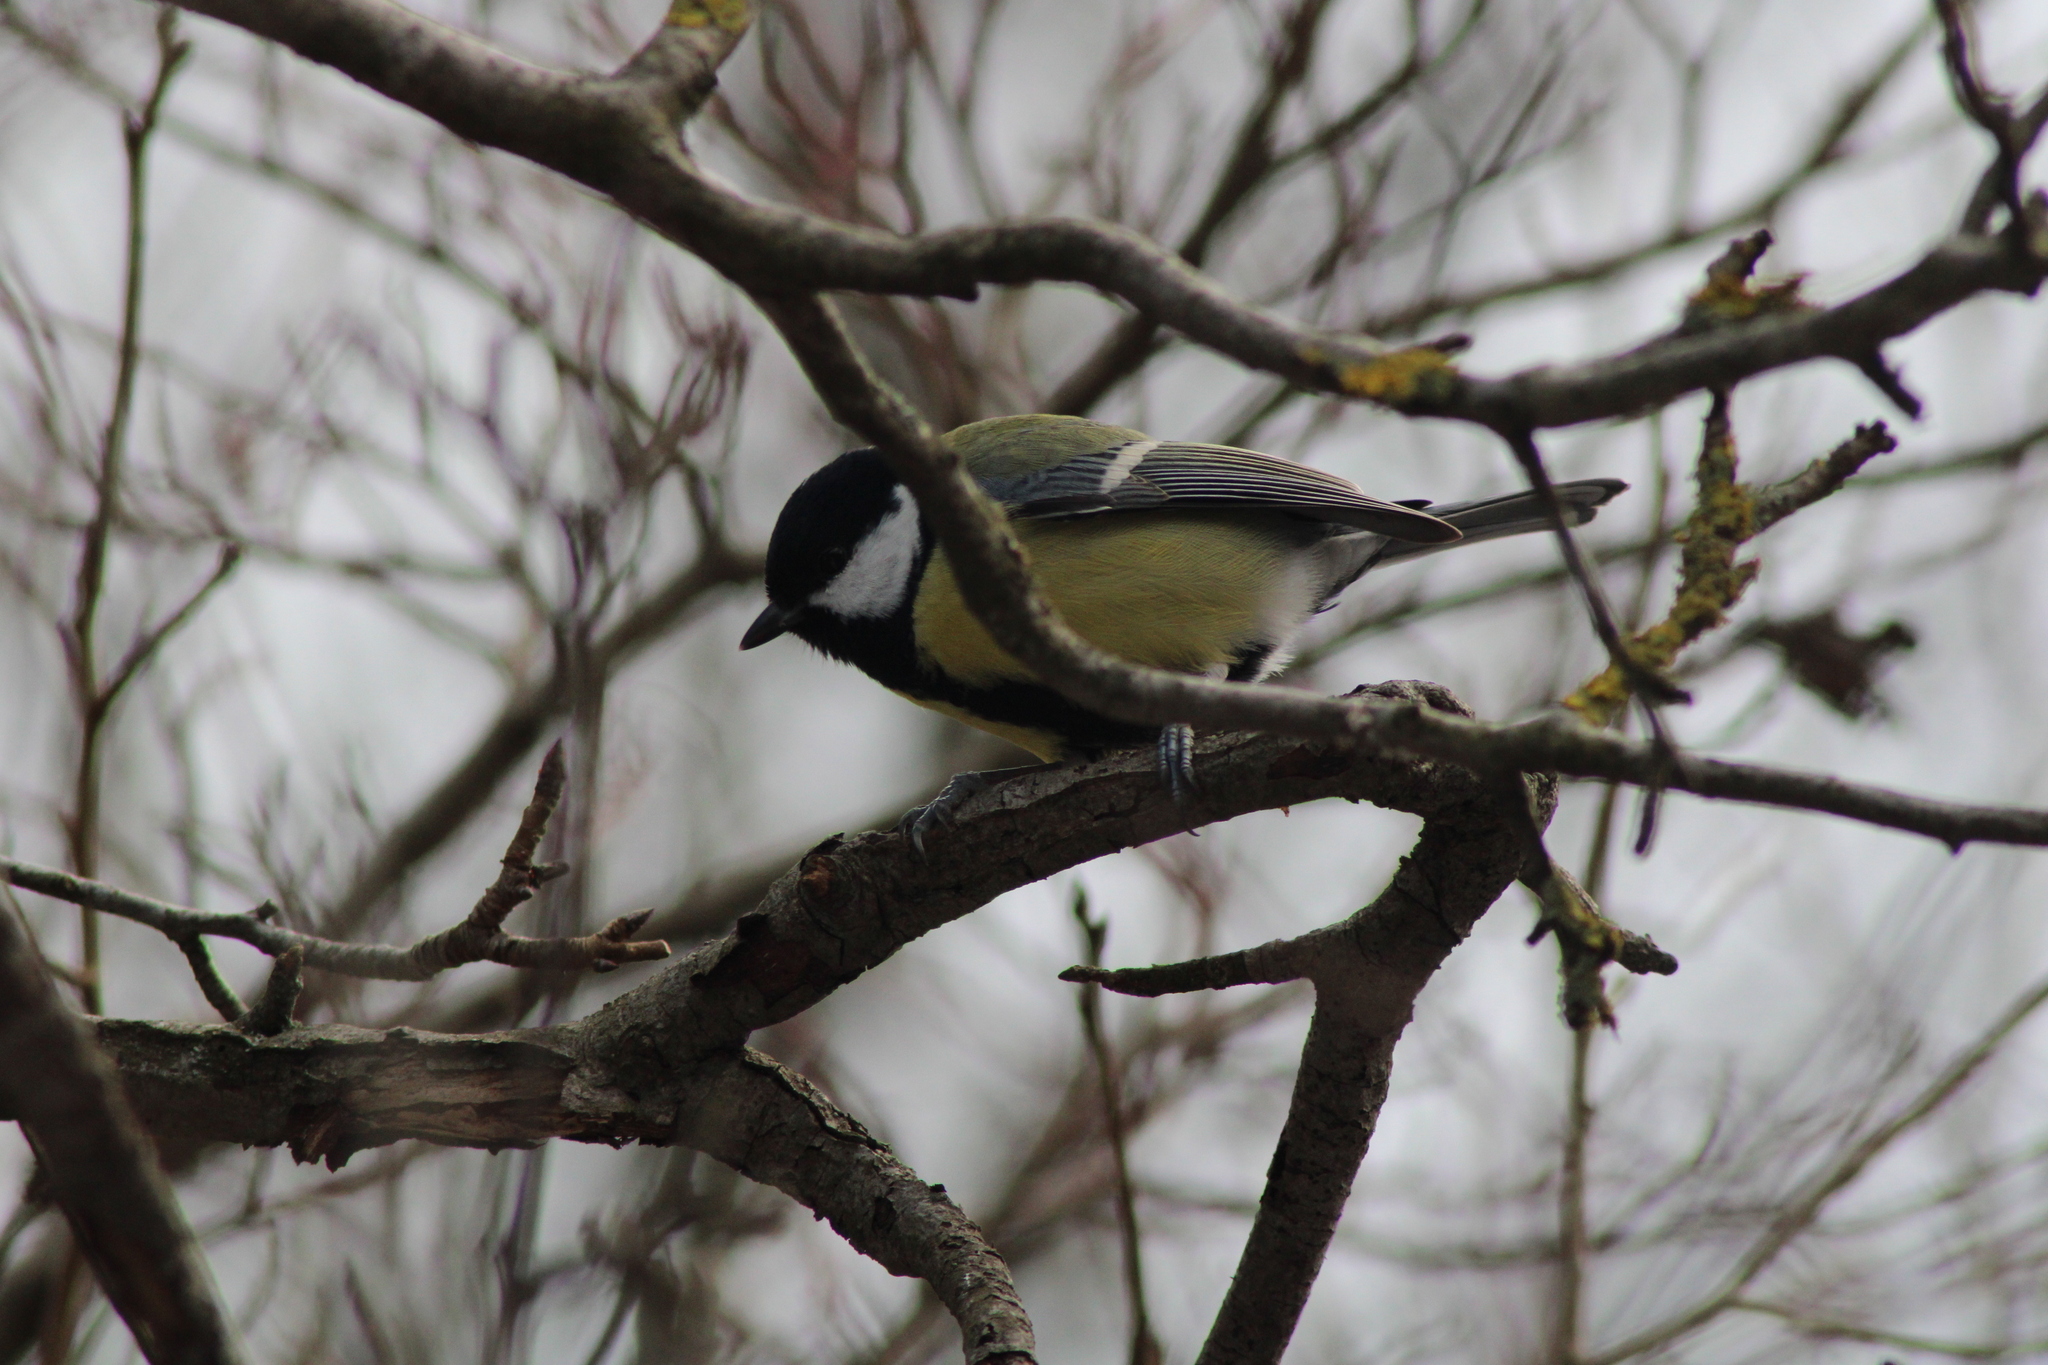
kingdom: Animalia
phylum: Chordata
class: Aves
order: Passeriformes
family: Paridae
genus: Parus
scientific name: Parus major
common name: Great tit
